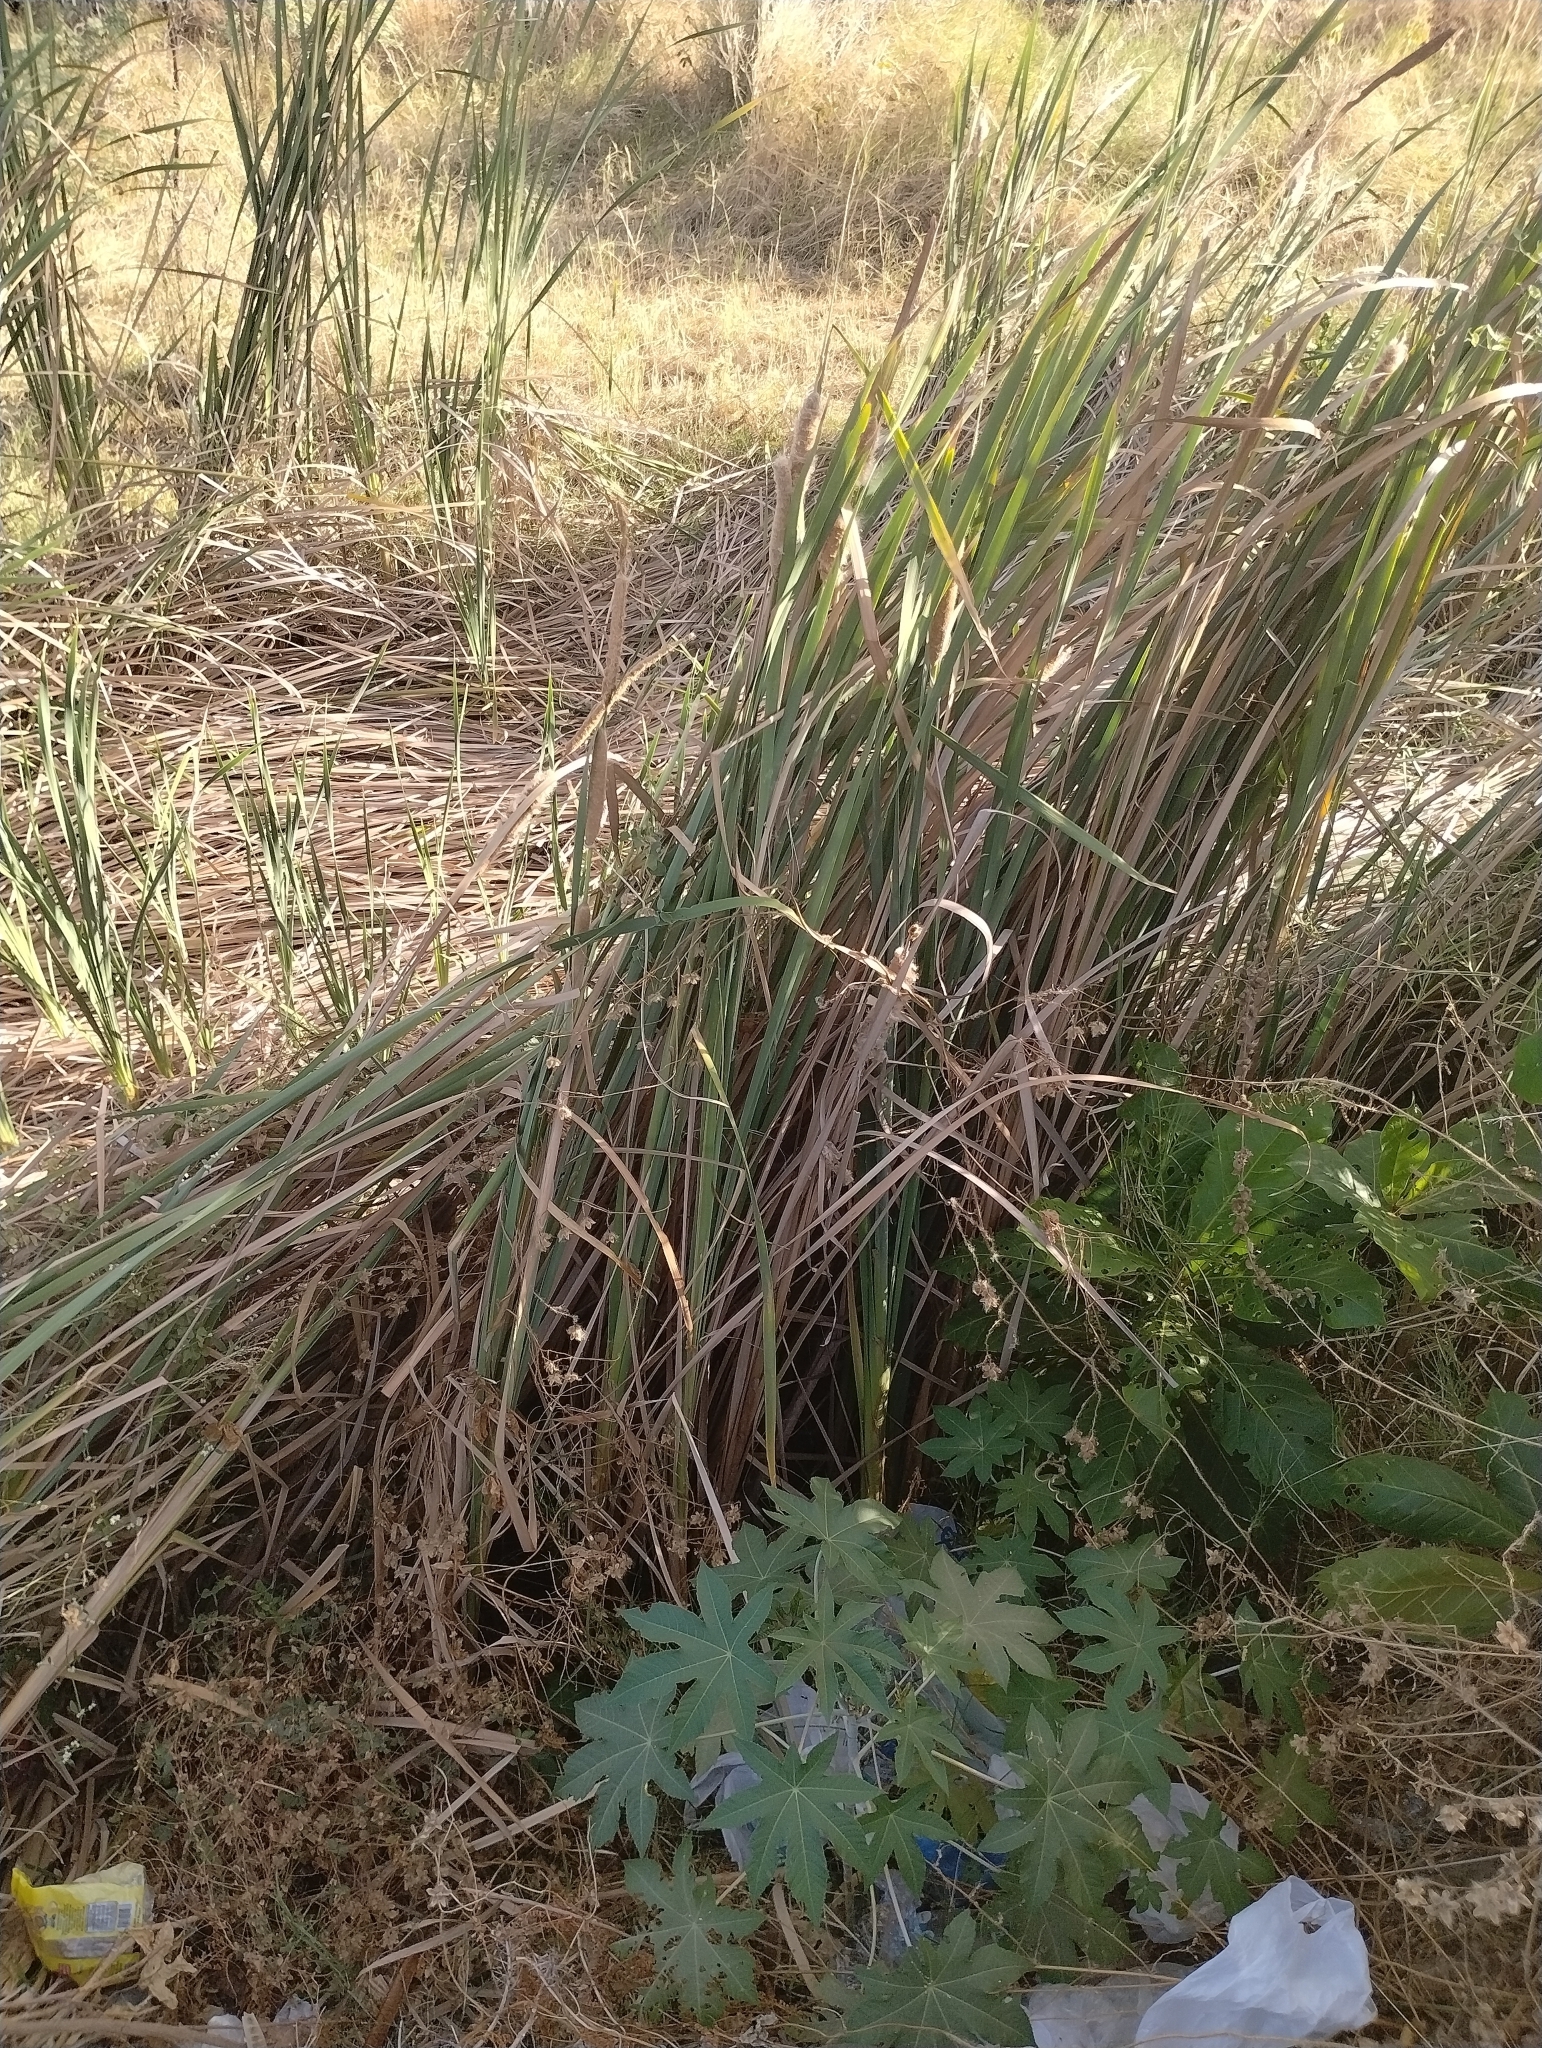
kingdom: Plantae
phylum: Tracheophyta
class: Liliopsida
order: Poales
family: Typhaceae
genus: Typha
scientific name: Typha
